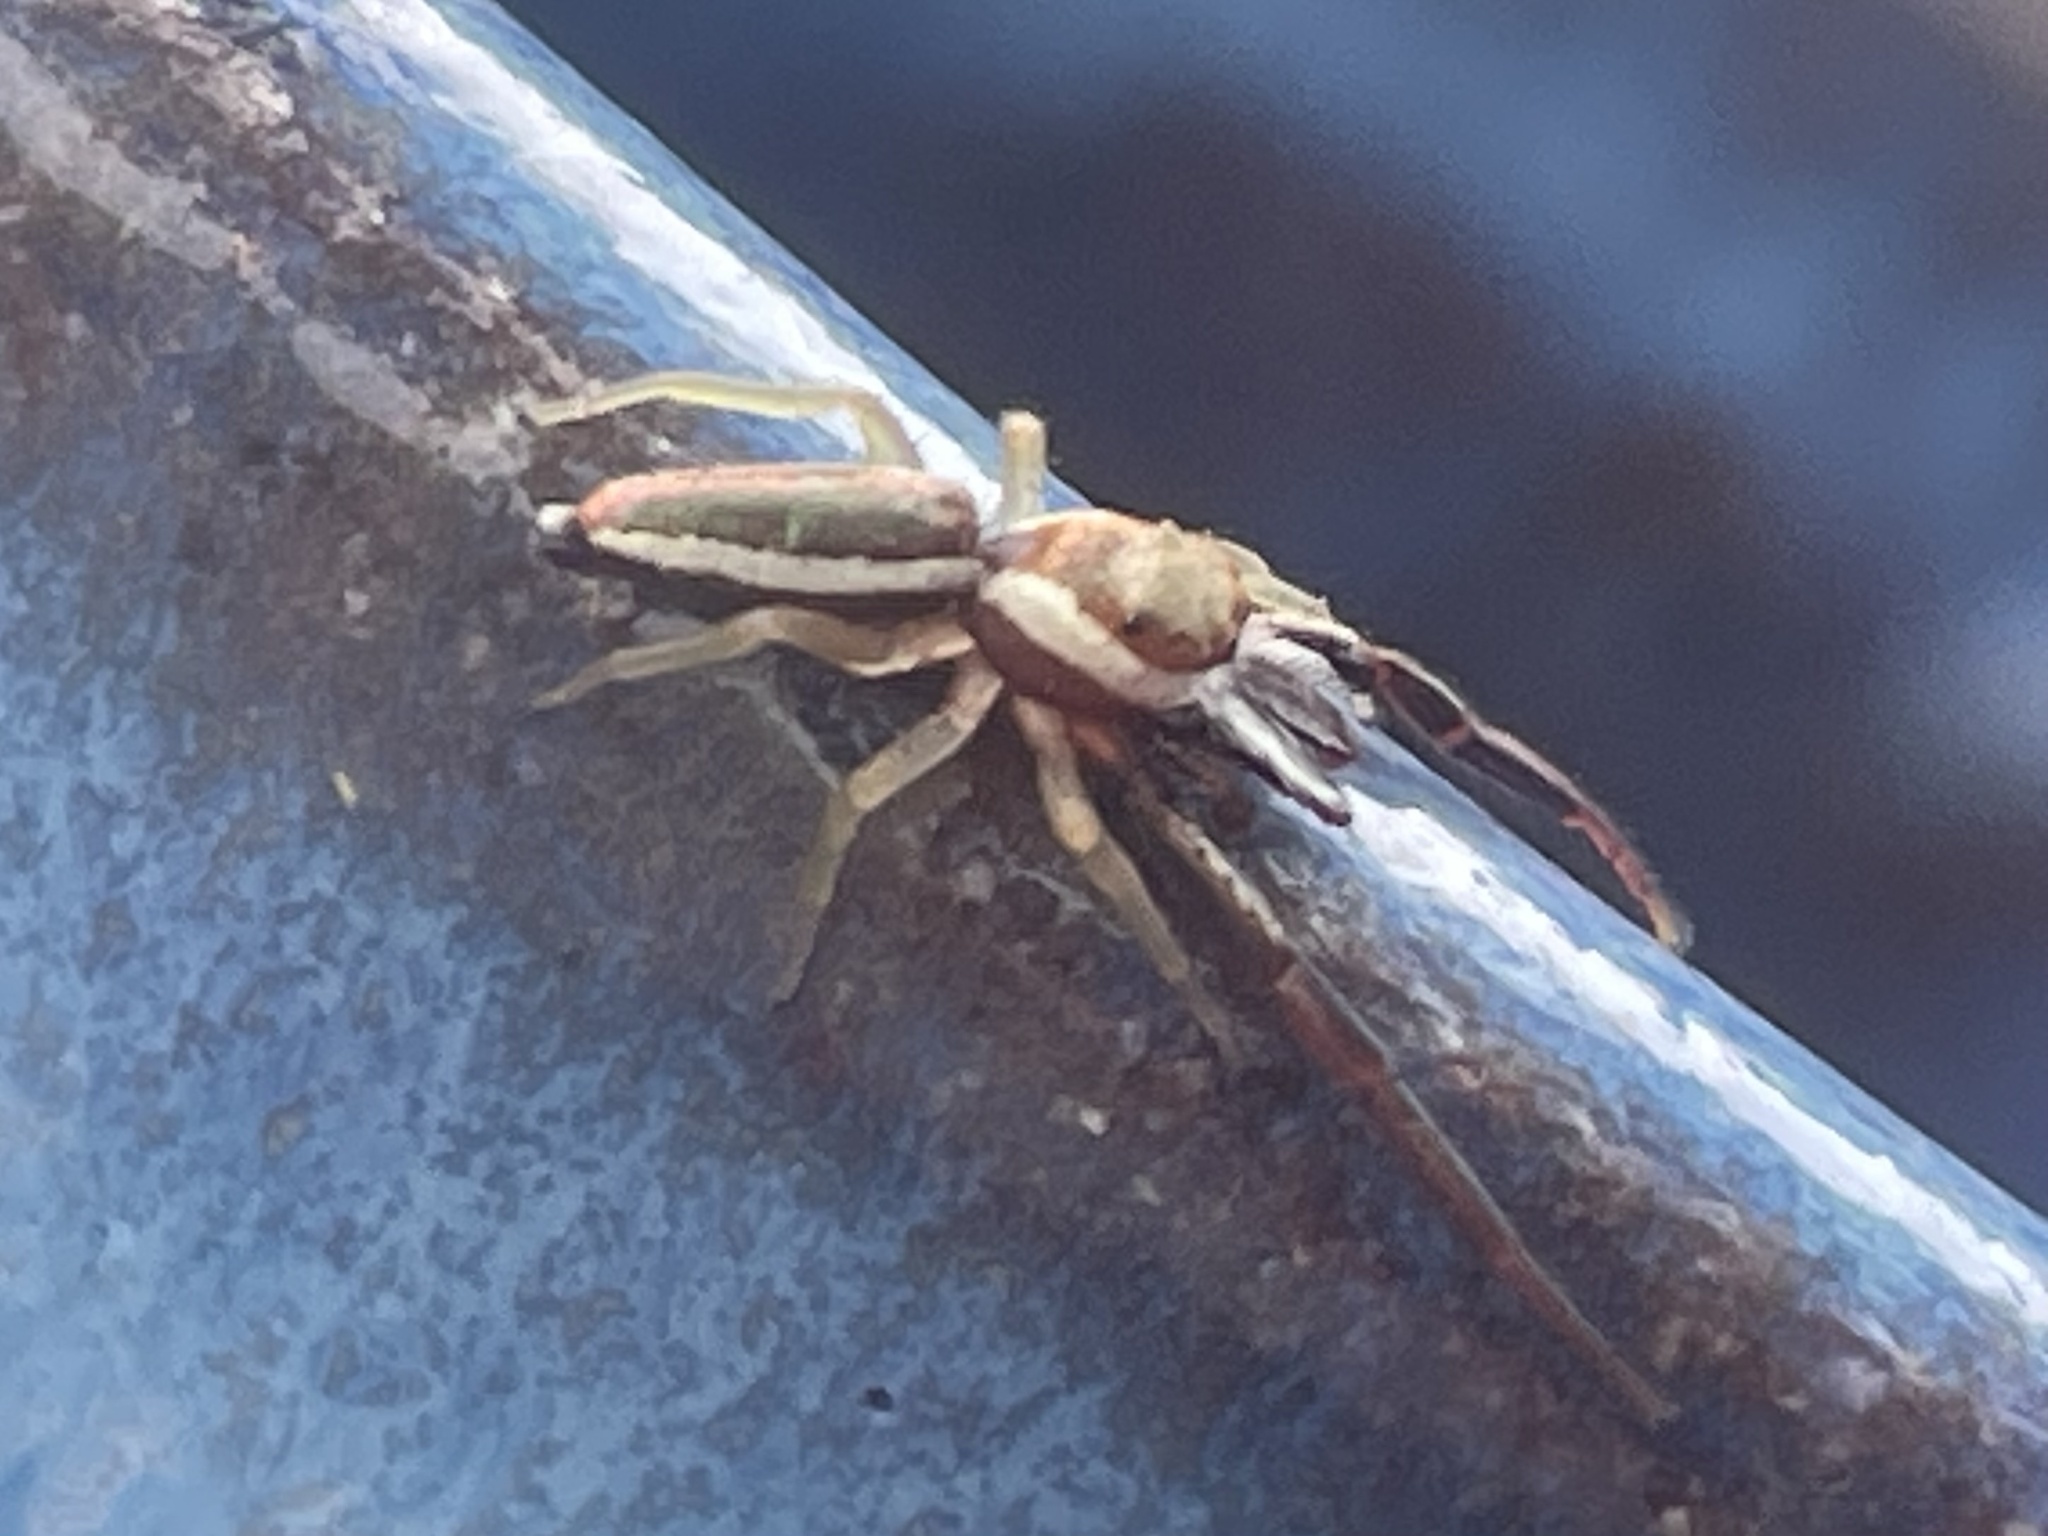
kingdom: Animalia
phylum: Arthropoda
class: Arachnida
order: Araneae
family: Salticidae
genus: Hentzia
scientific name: Hentzia palmarum
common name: Common hentz jumping spider
